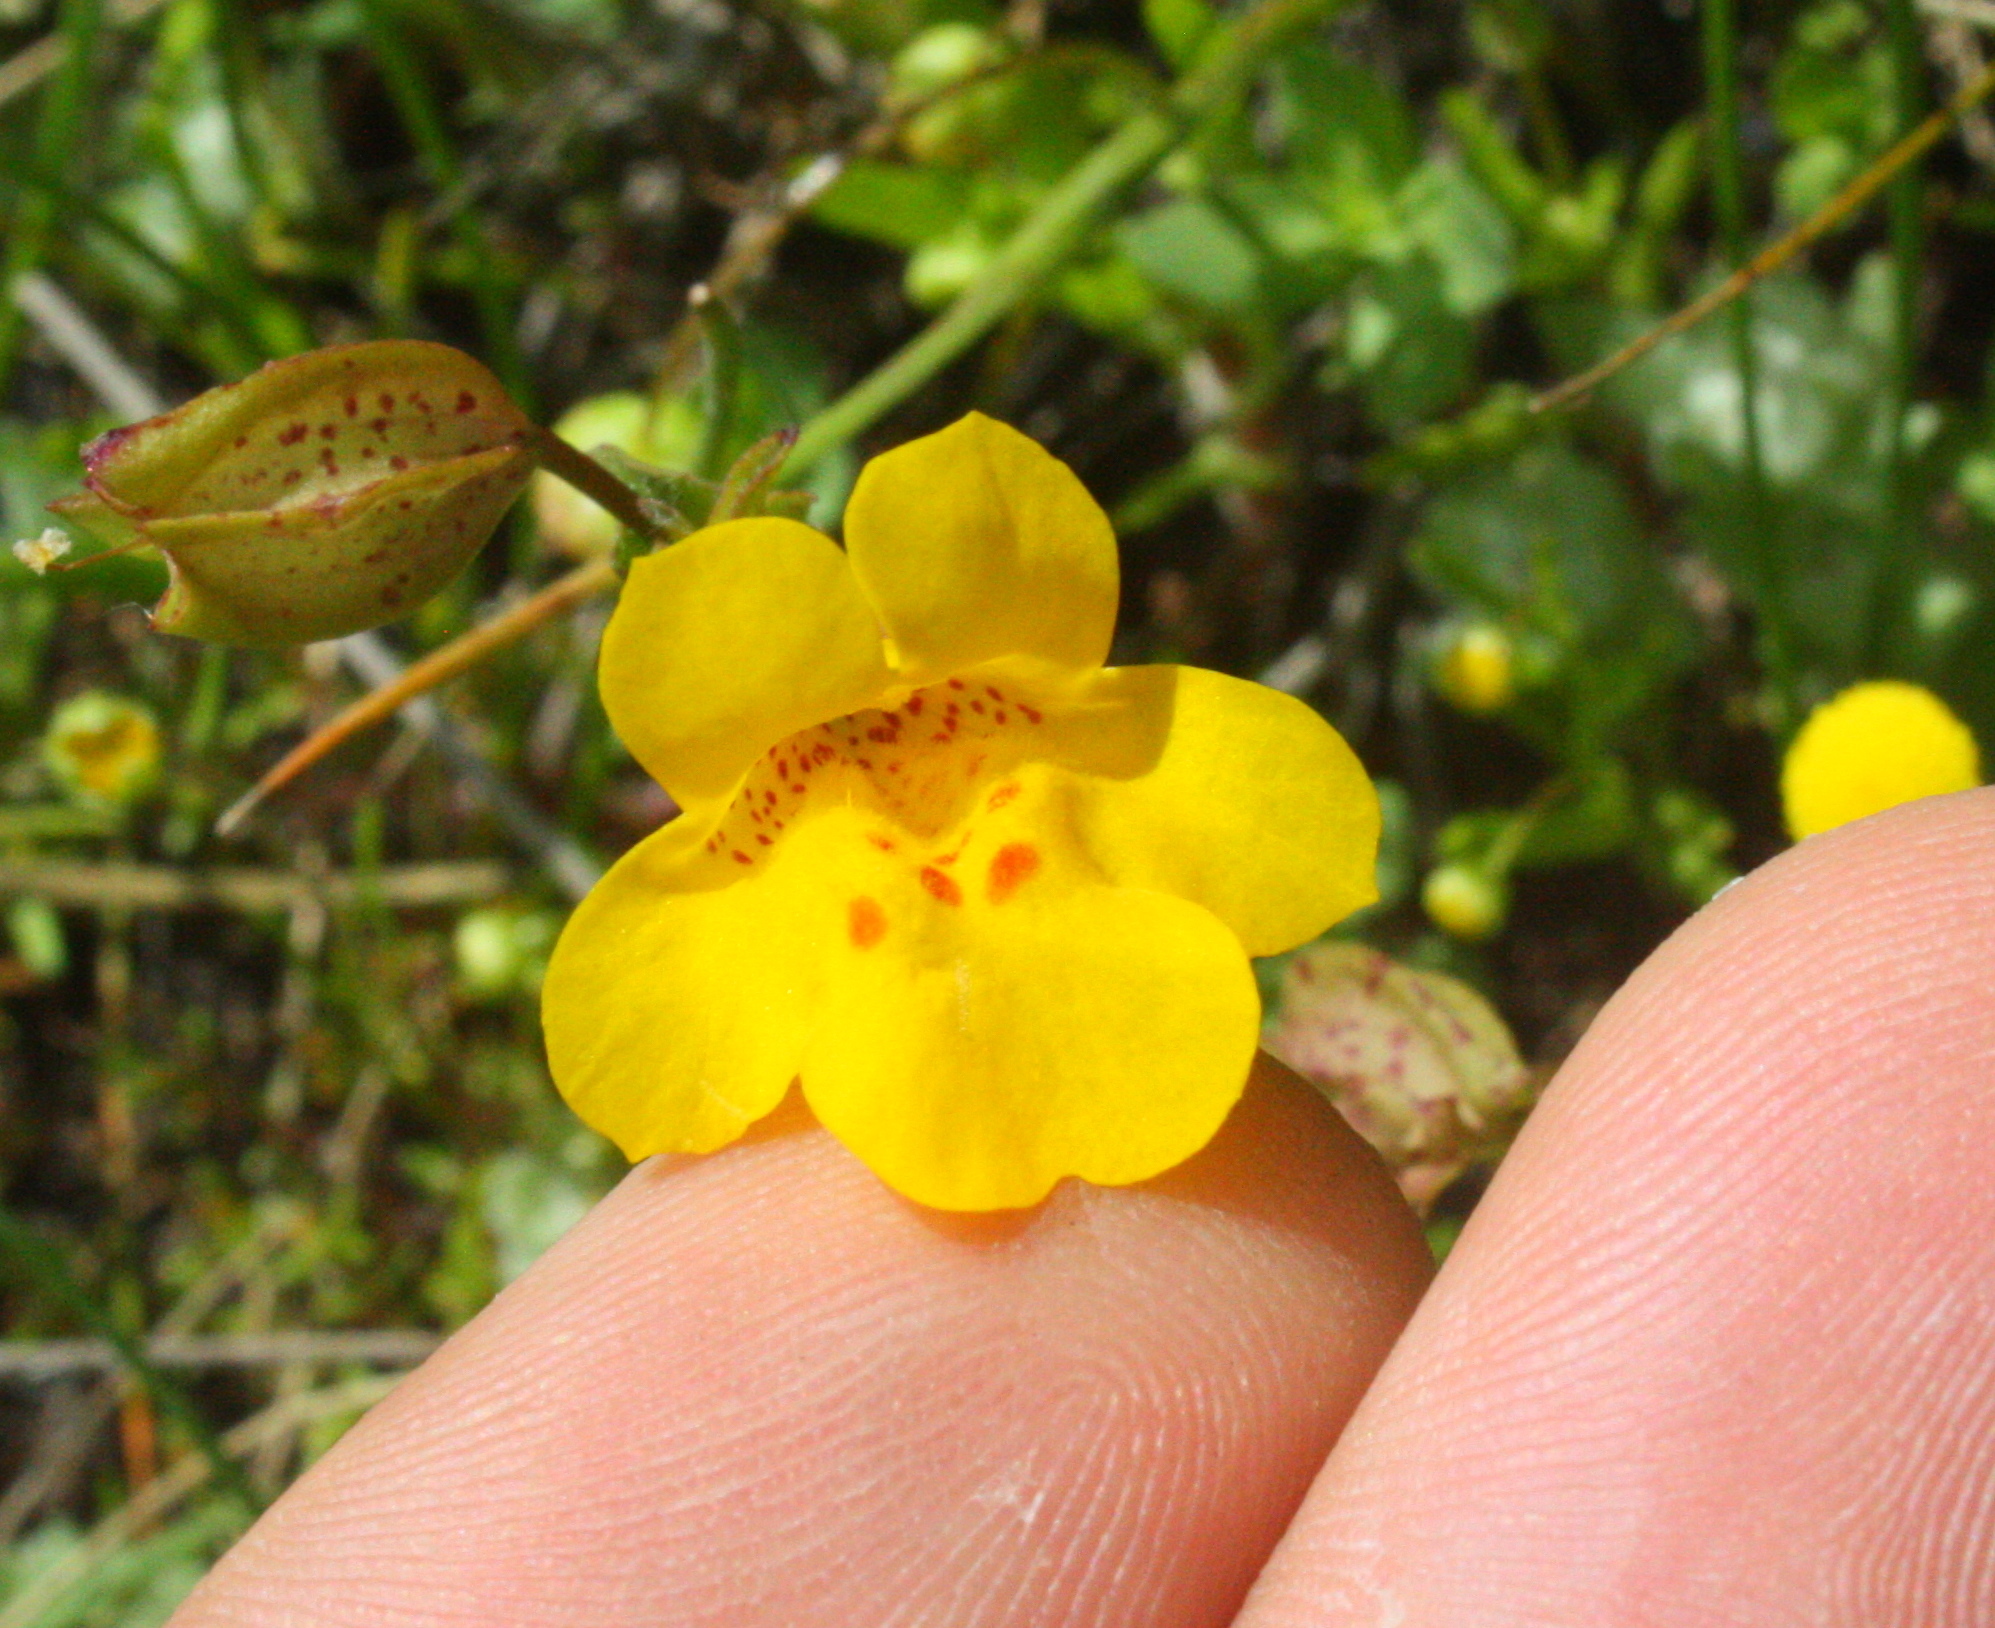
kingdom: Plantae
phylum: Tracheophyta
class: Magnoliopsida
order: Lamiales
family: Phrymaceae
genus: Erythranthe
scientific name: Erythranthe guttata
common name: Monkeyflower
